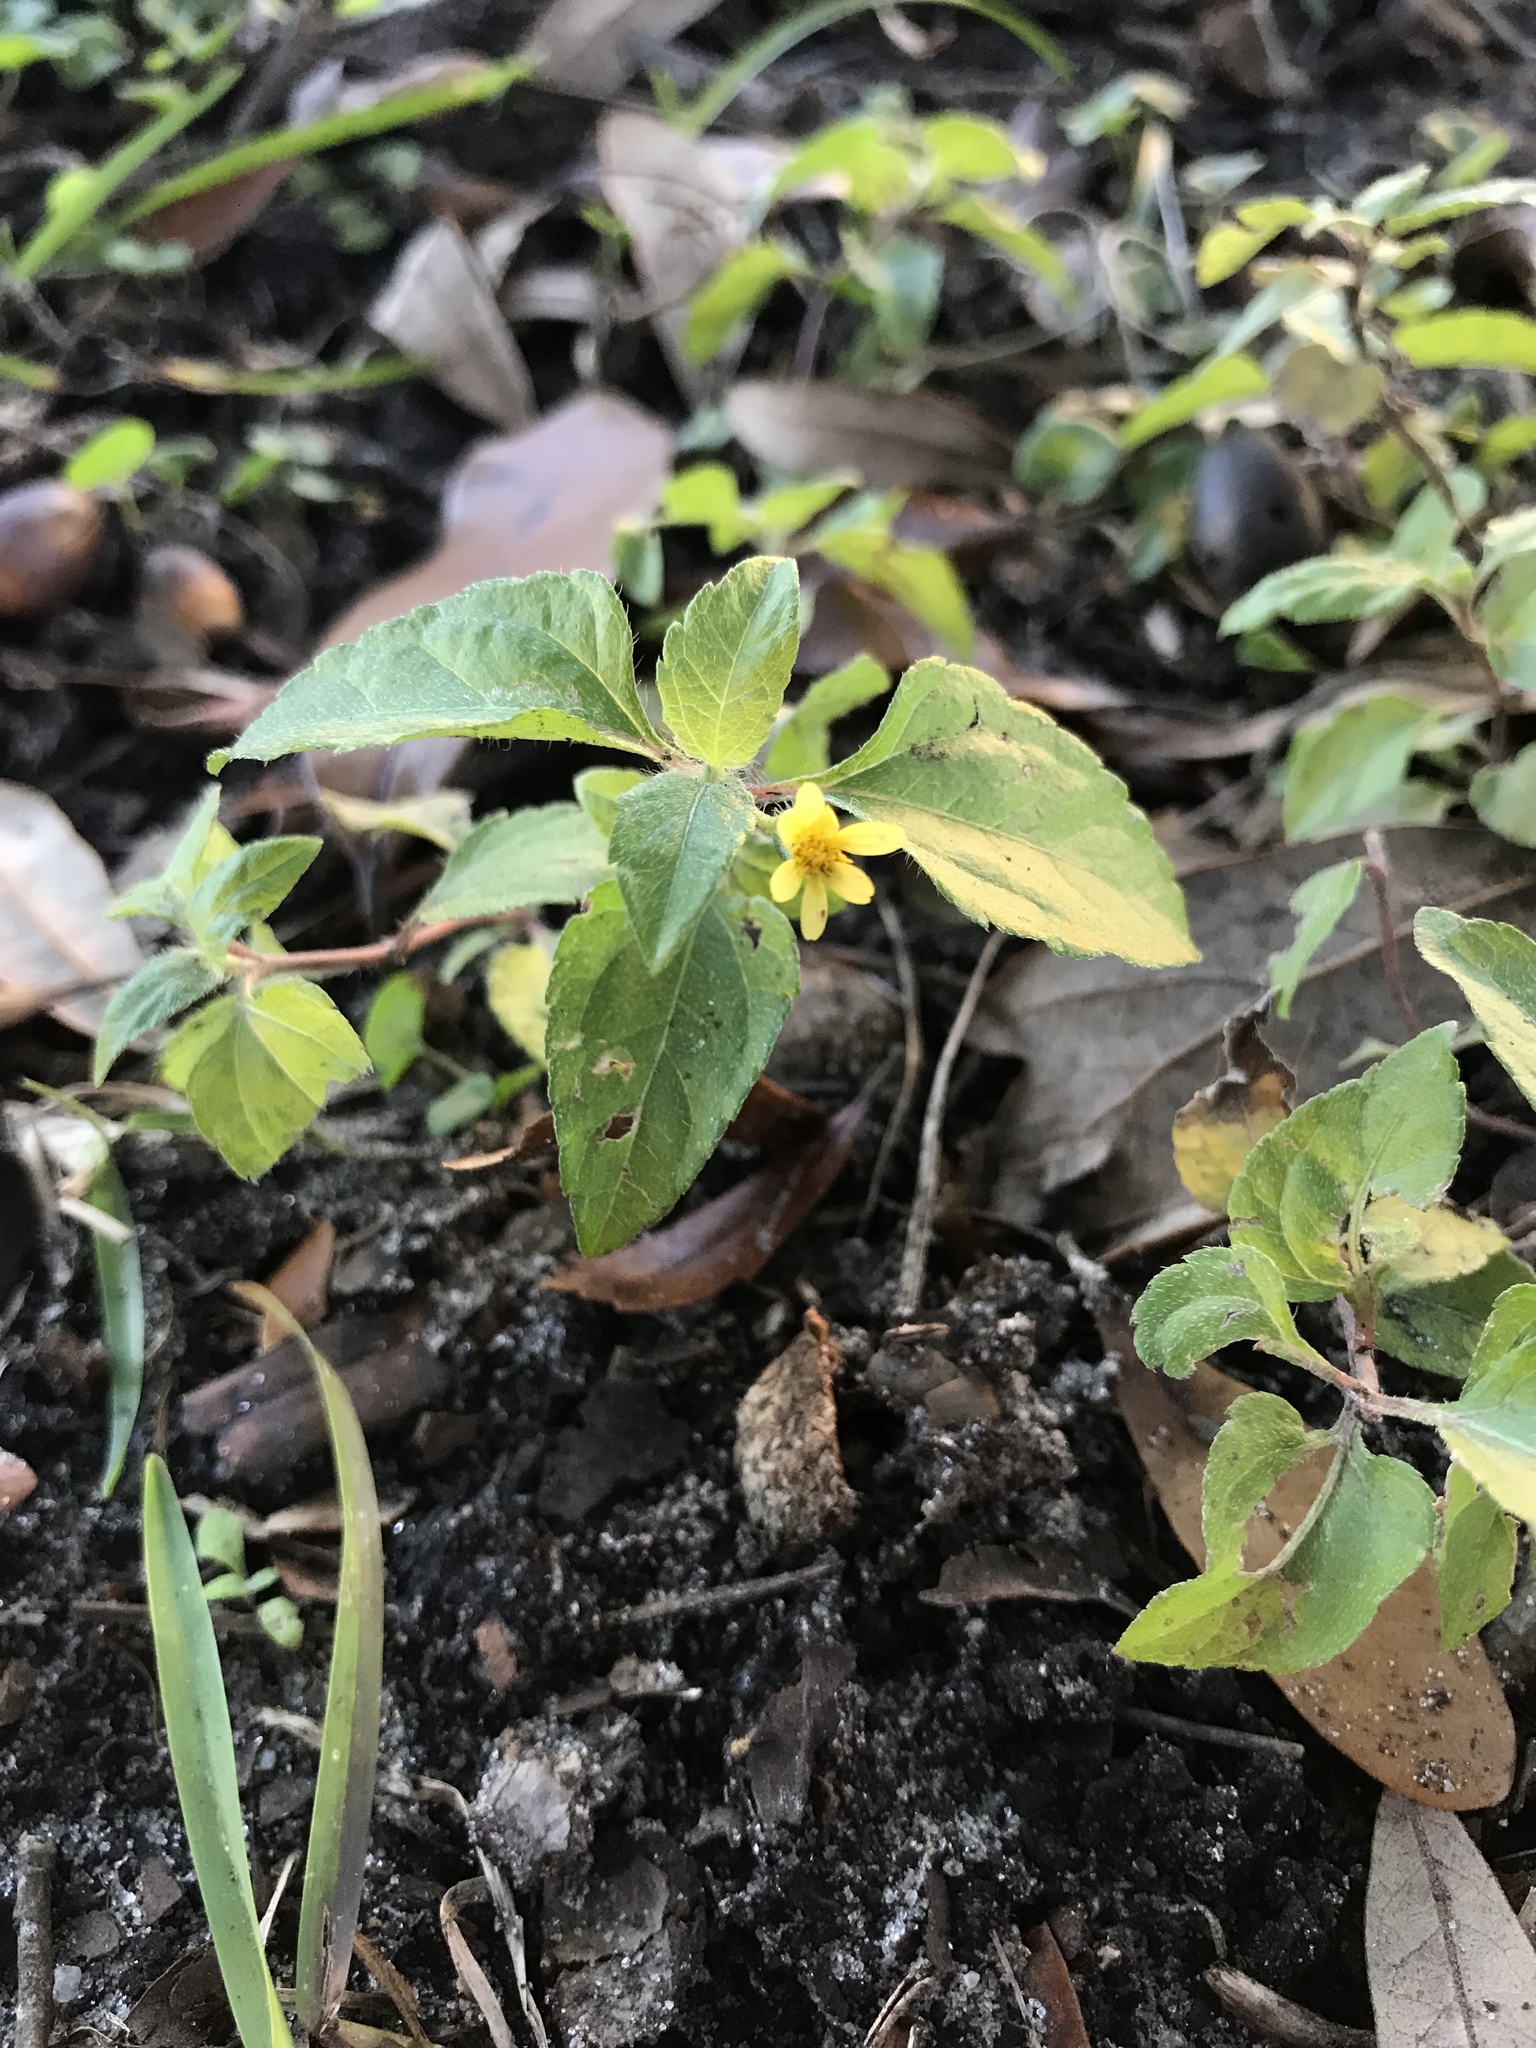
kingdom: Plantae
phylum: Tracheophyta
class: Magnoliopsida
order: Asterales
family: Asteraceae
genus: Calyptocarpus
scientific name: Calyptocarpus vialis
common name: Straggler daisy
